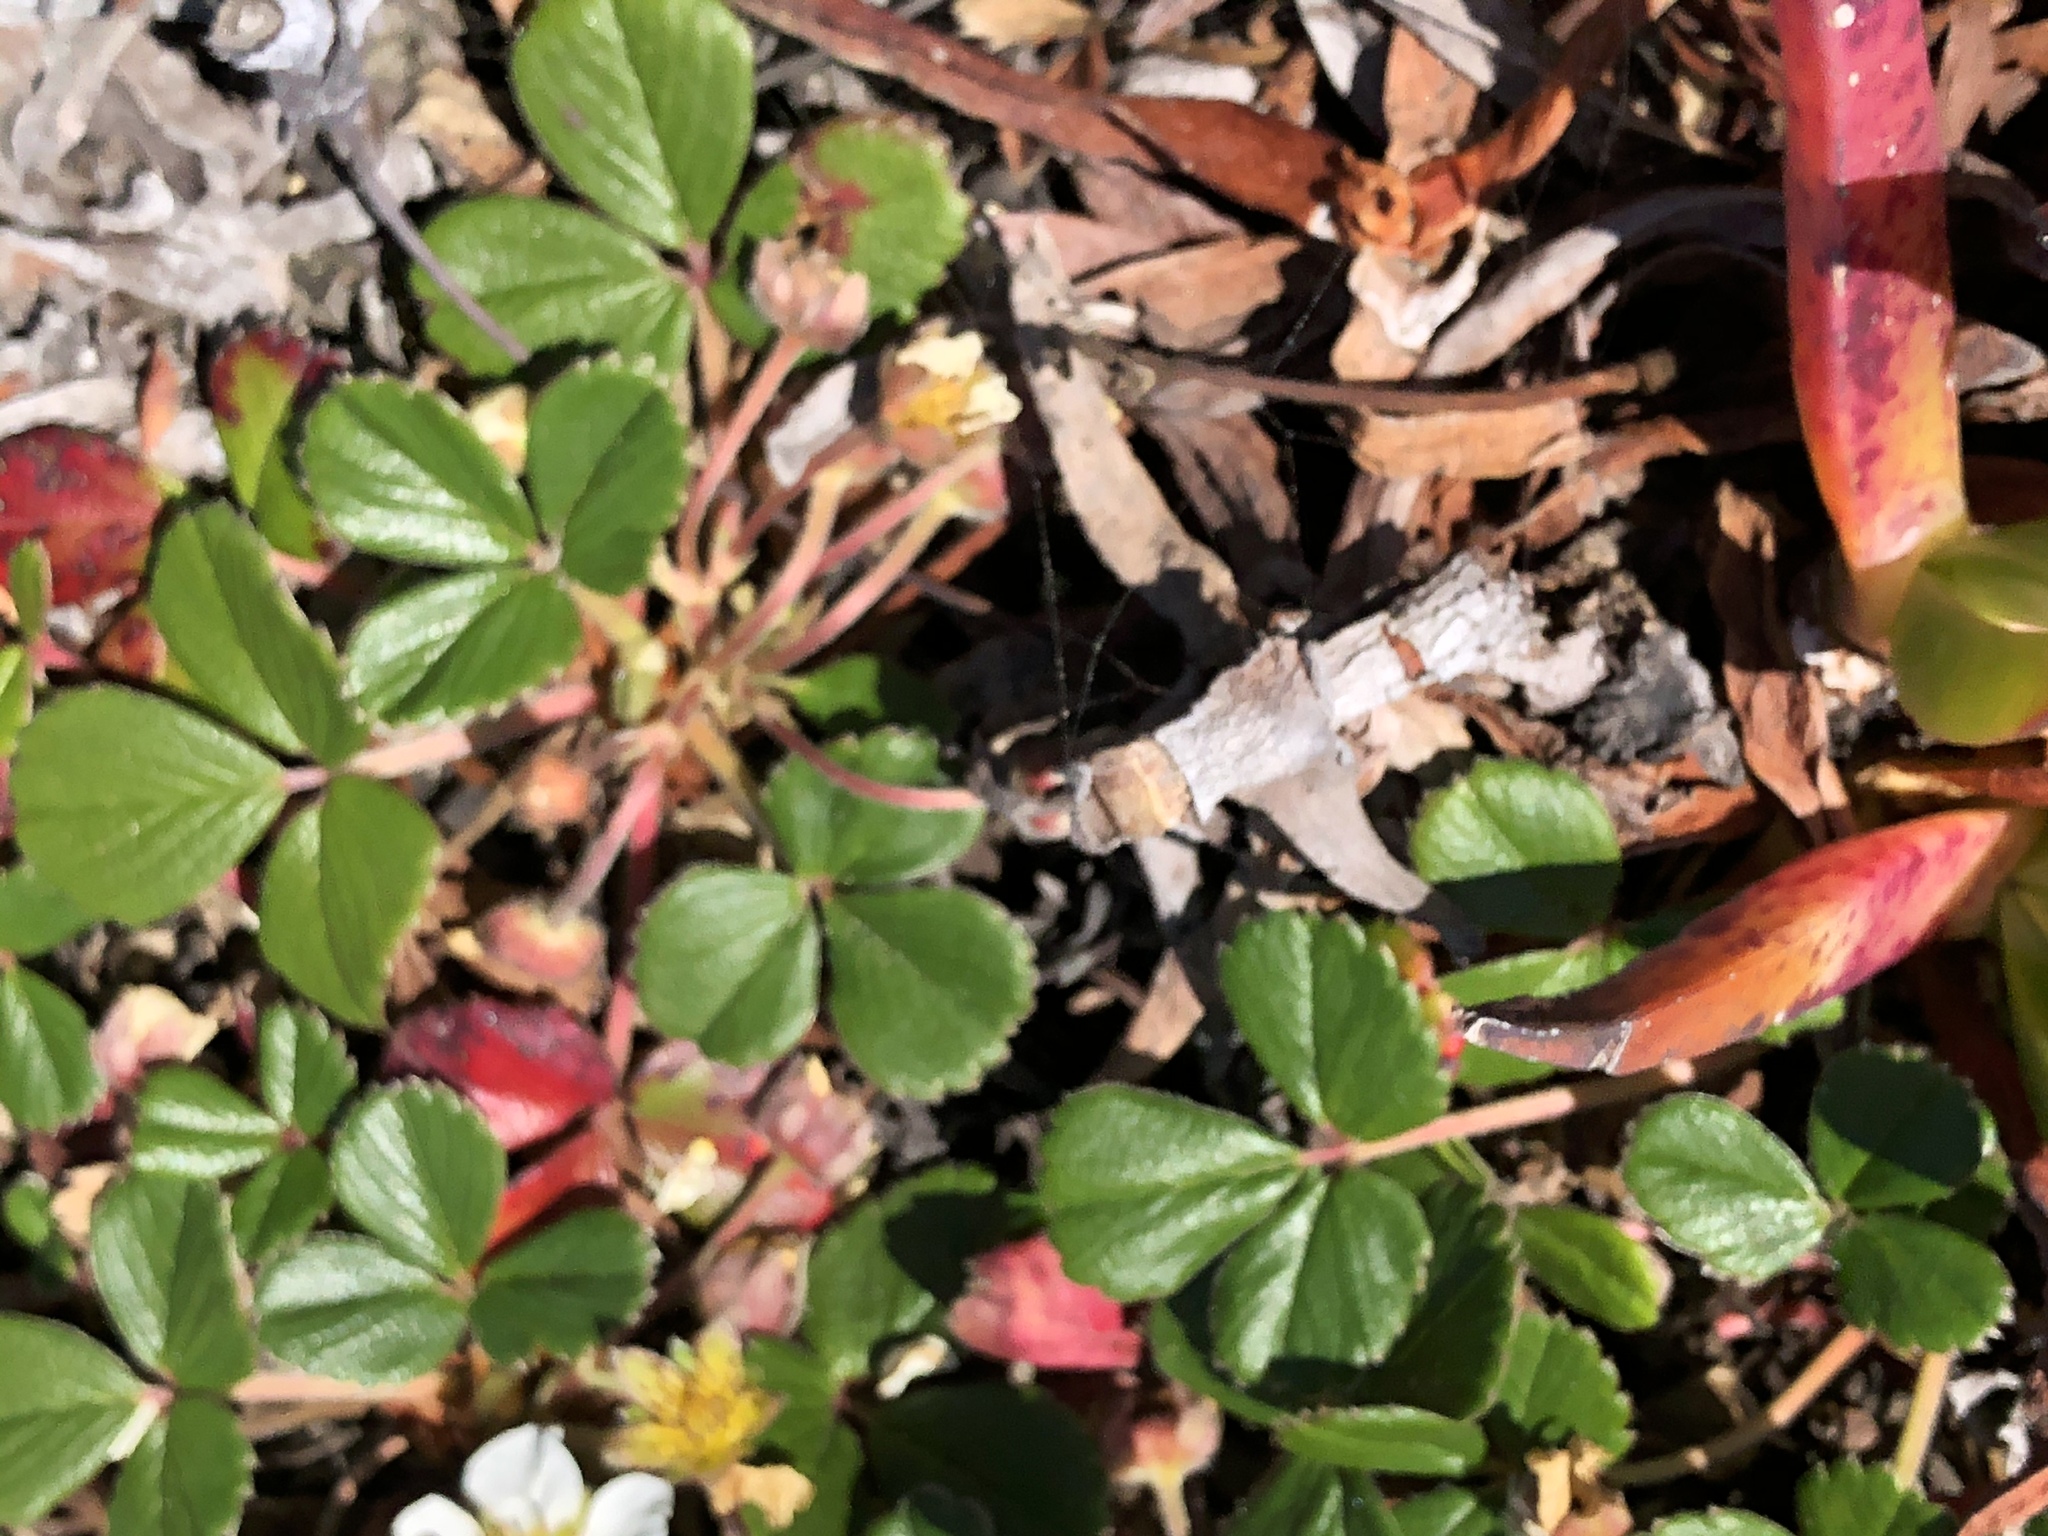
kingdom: Plantae
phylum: Tracheophyta
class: Magnoliopsida
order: Rosales
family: Rosaceae
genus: Fragaria
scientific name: Fragaria chiloensis
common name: Beach strawberry
